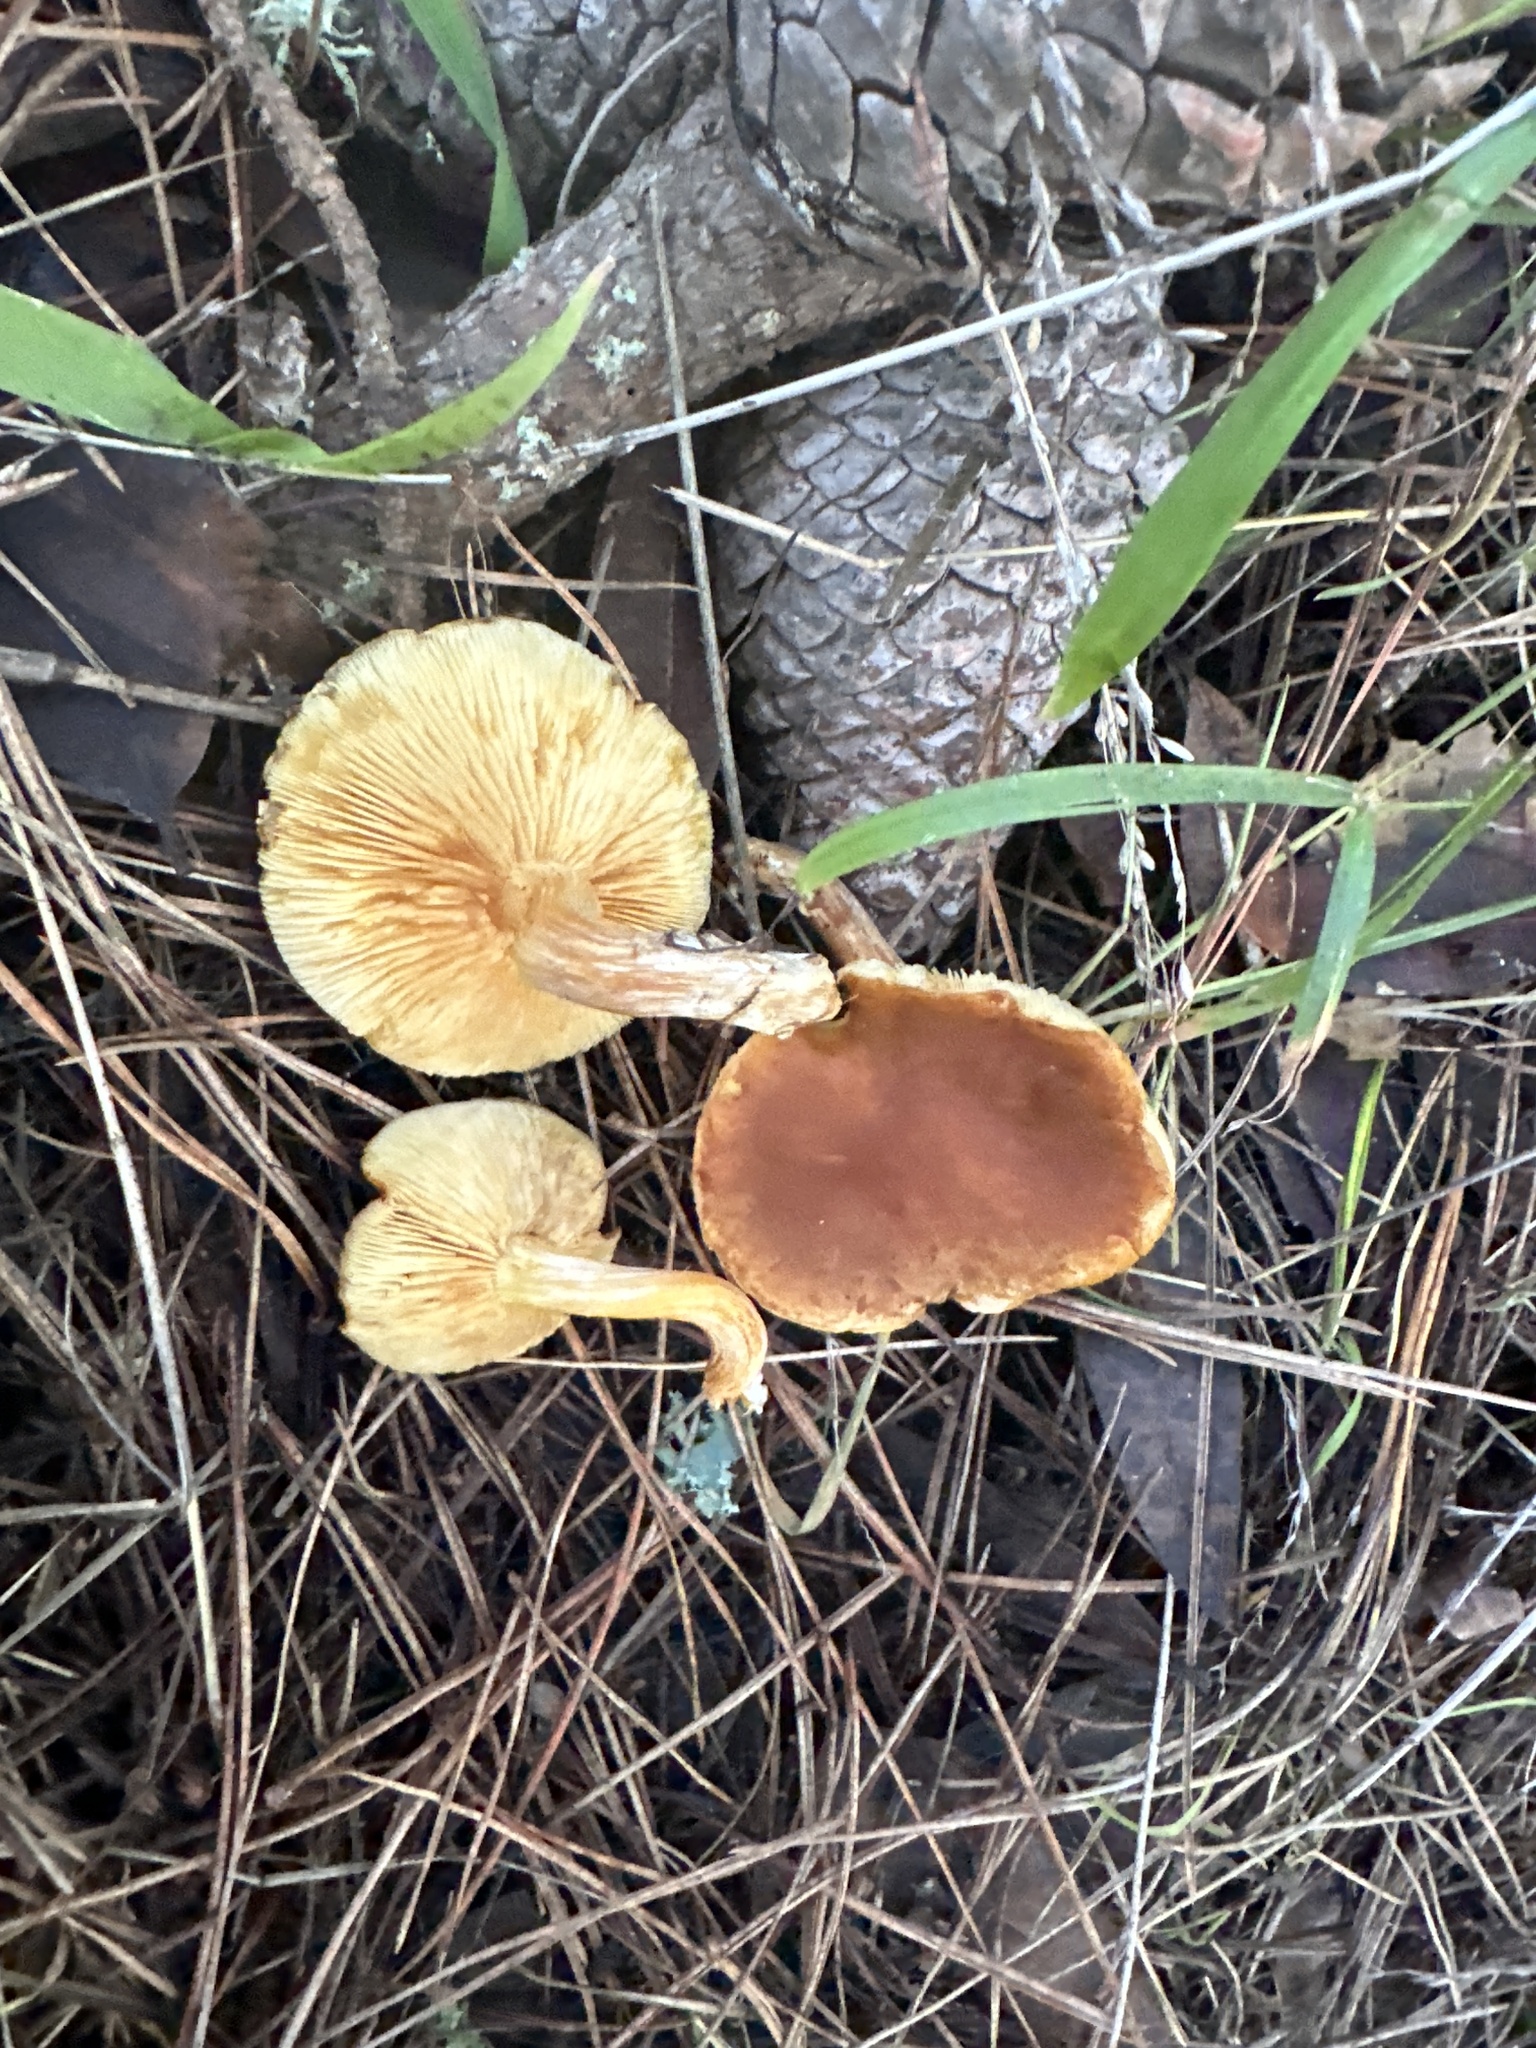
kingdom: Fungi
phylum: Basidiomycota
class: Agaricomycetes
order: Agaricales
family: Hymenogastraceae
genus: Gymnopilus
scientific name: Gymnopilus aurantiophyllus
